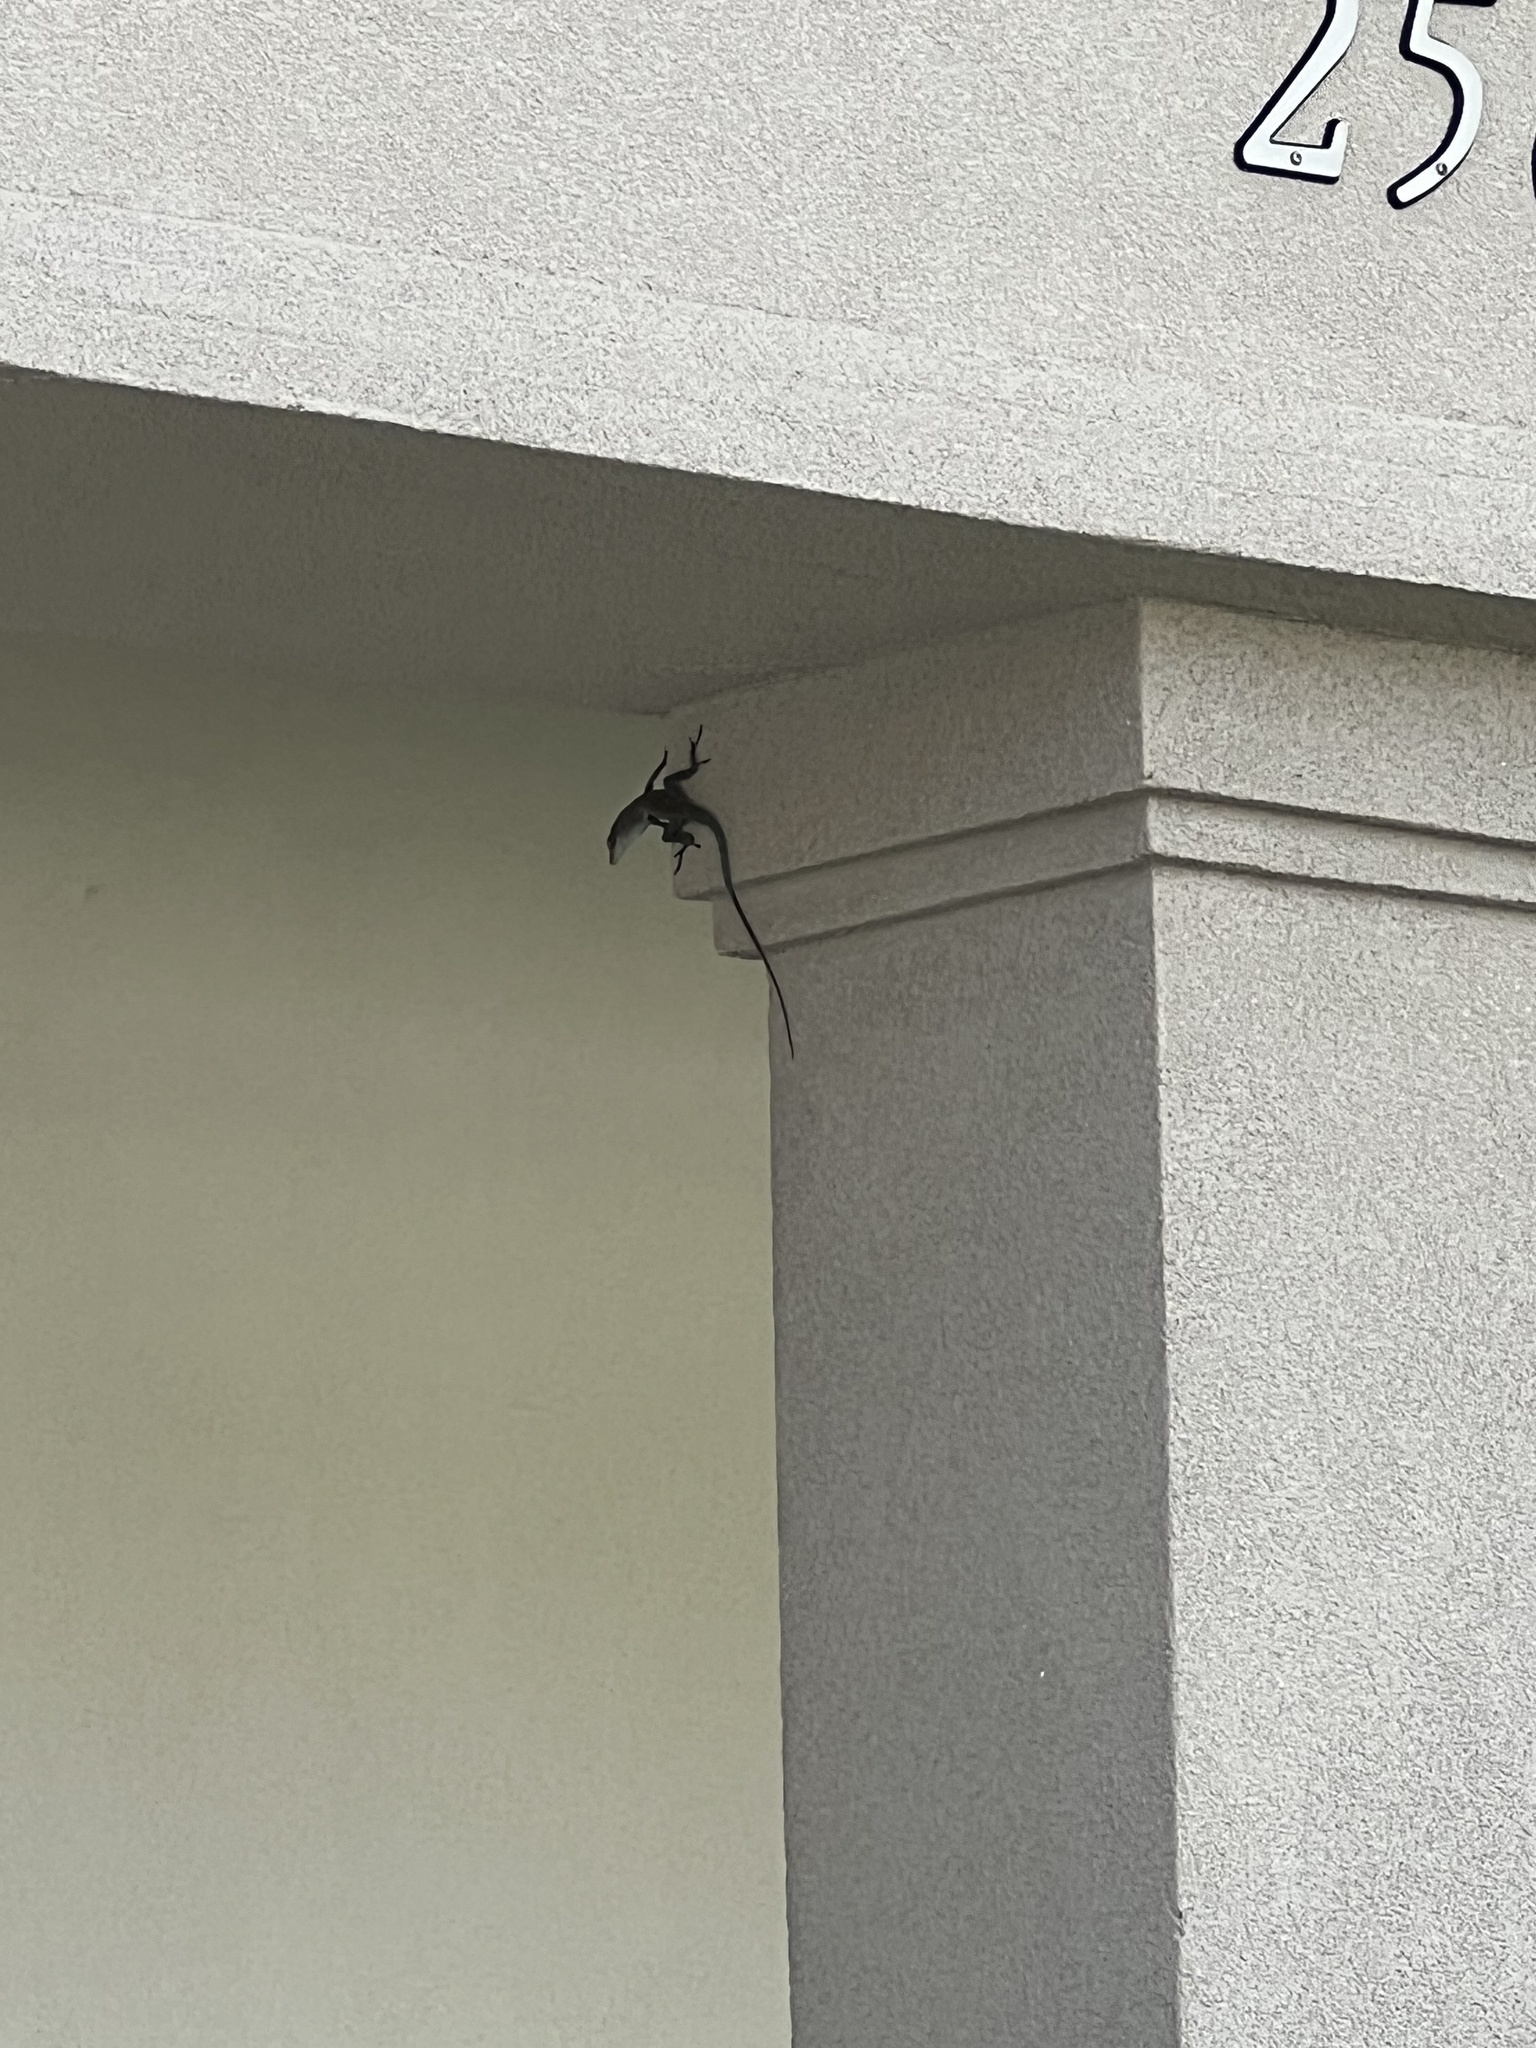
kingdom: Animalia
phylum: Chordata
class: Squamata
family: Dactyloidae
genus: Anolis
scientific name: Anolis conspersus
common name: Grand cayman anole
